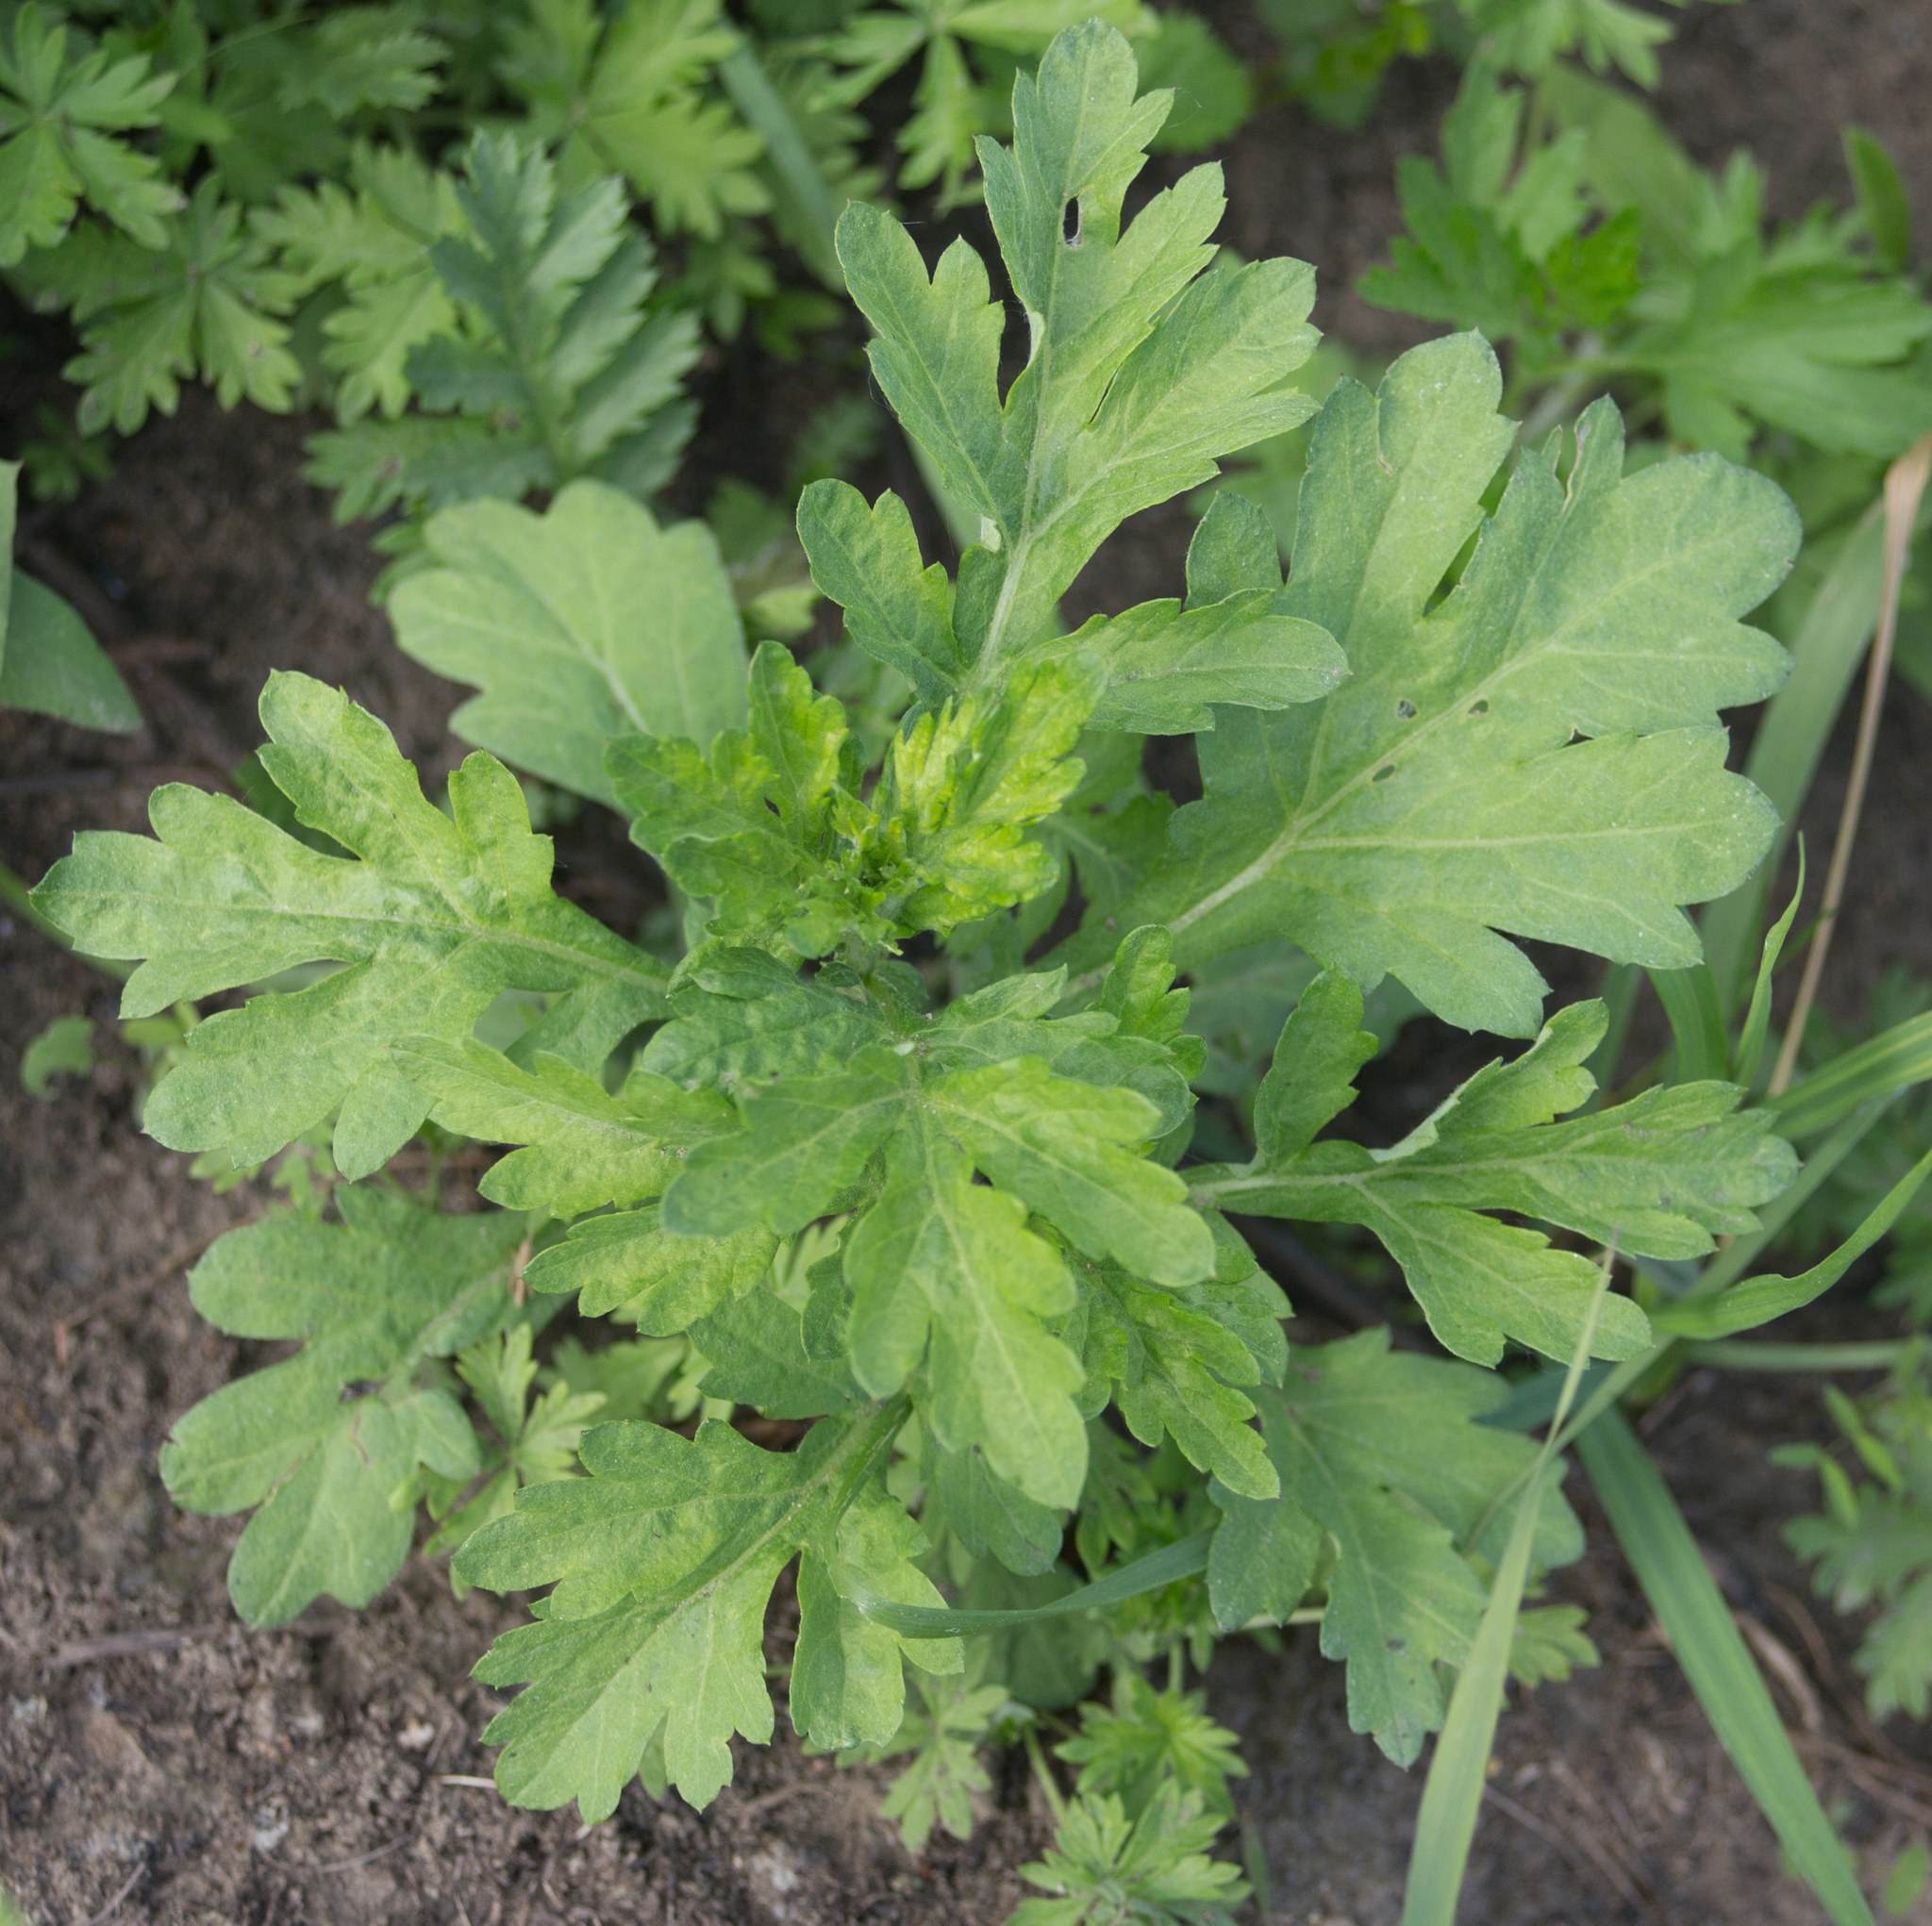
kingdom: Plantae
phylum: Tracheophyta
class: Magnoliopsida
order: Asterales
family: Asteraceae
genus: Artemisia
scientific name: Artemisia vulgaris
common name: Mugwort
